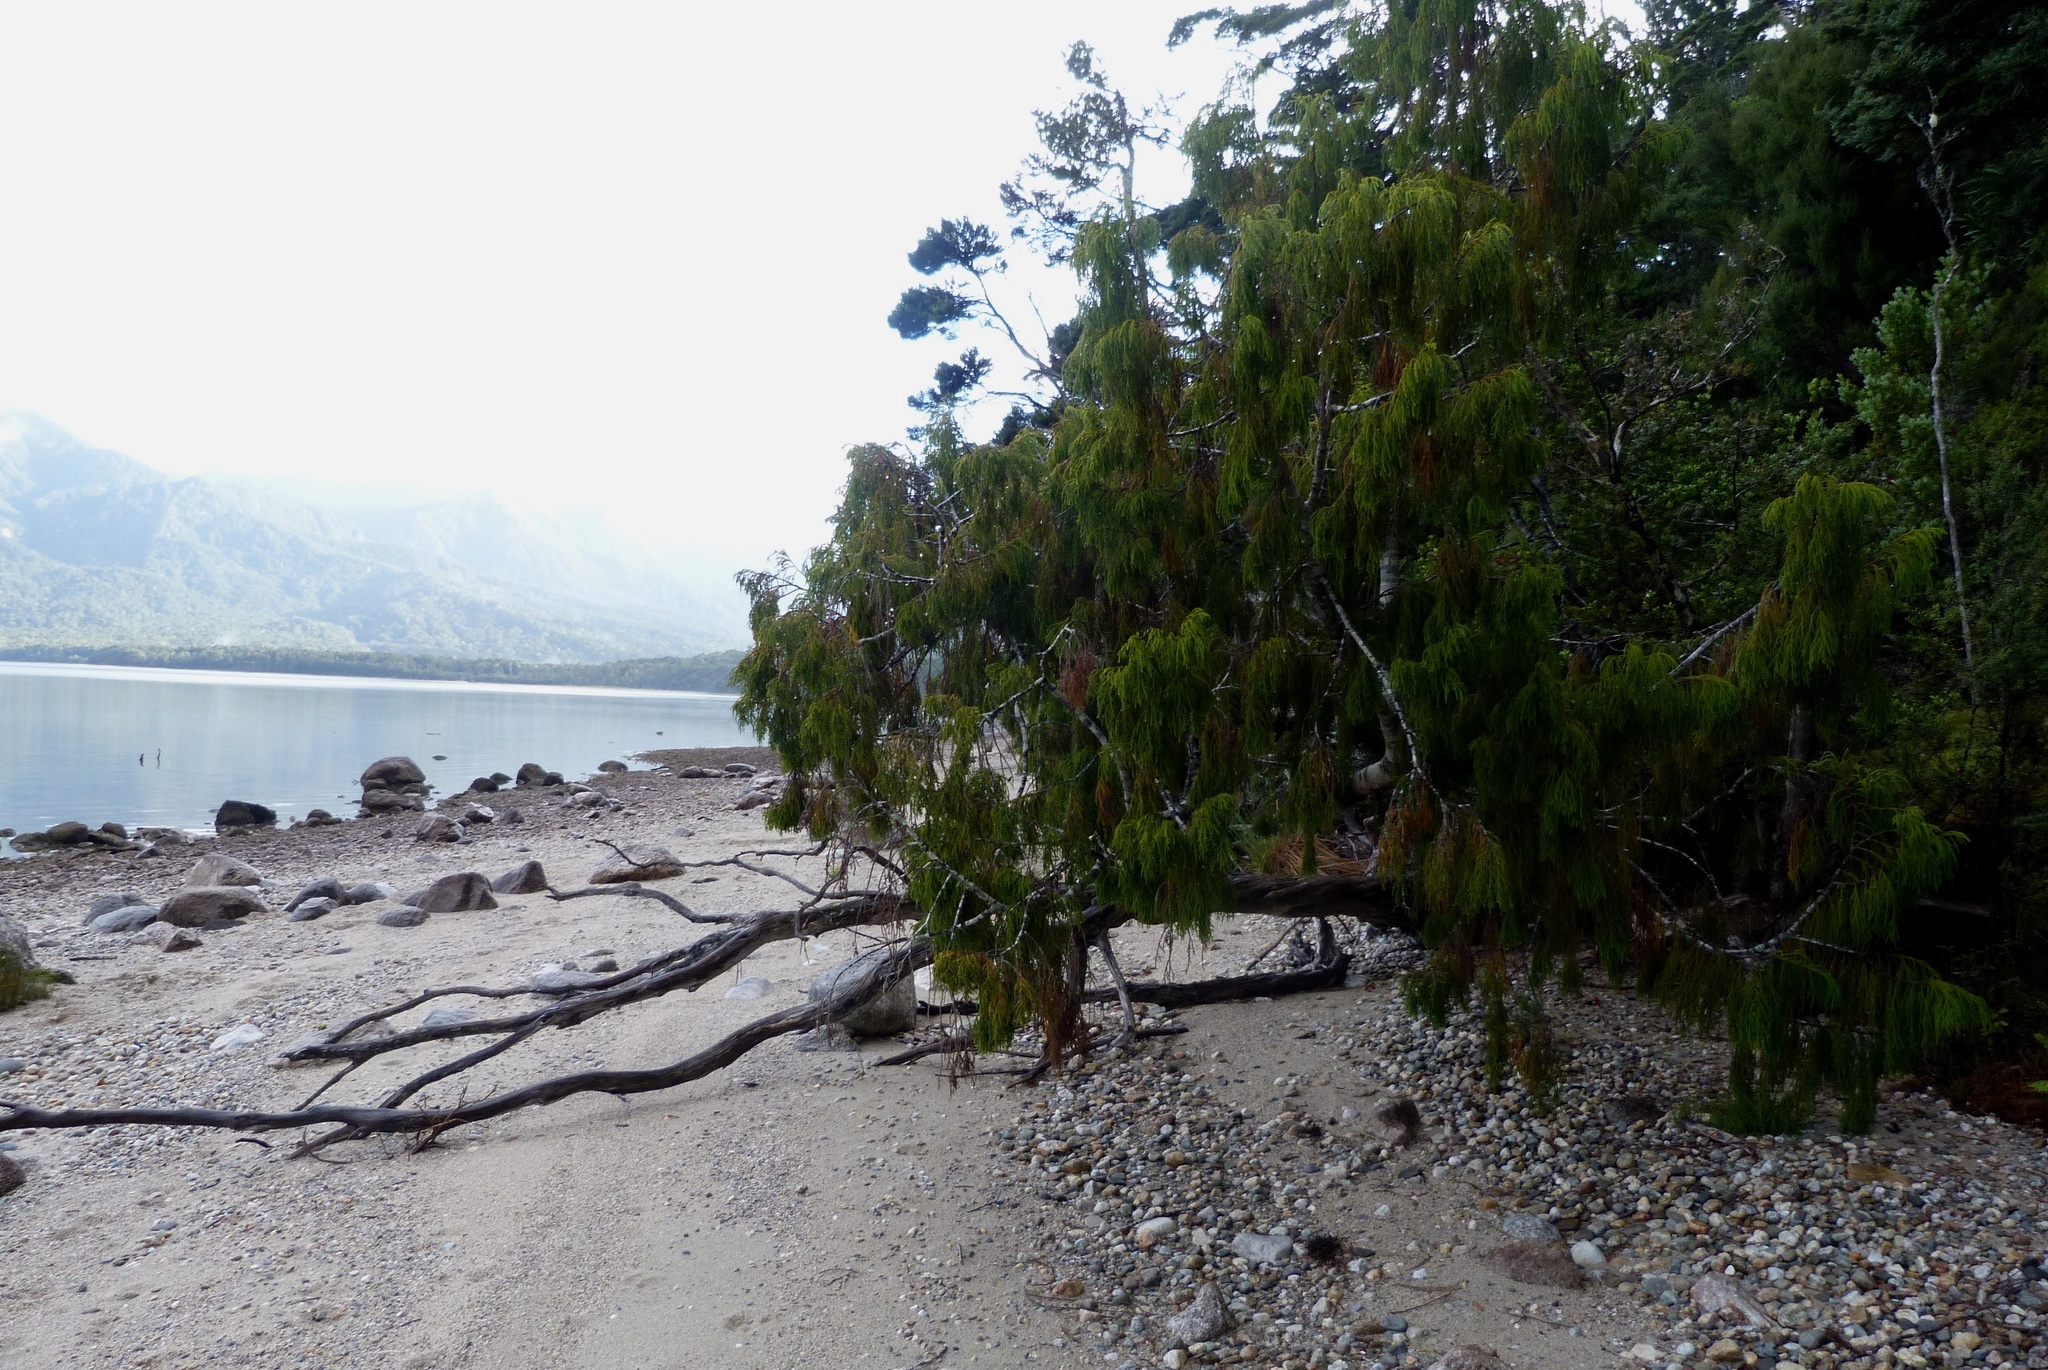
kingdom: Plantae
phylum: Tracheophyta
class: Pinopsida
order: Pinales
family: Podocarpaceae
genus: Dacrydium
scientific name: Dacrydium cupressinum
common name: Red pine
